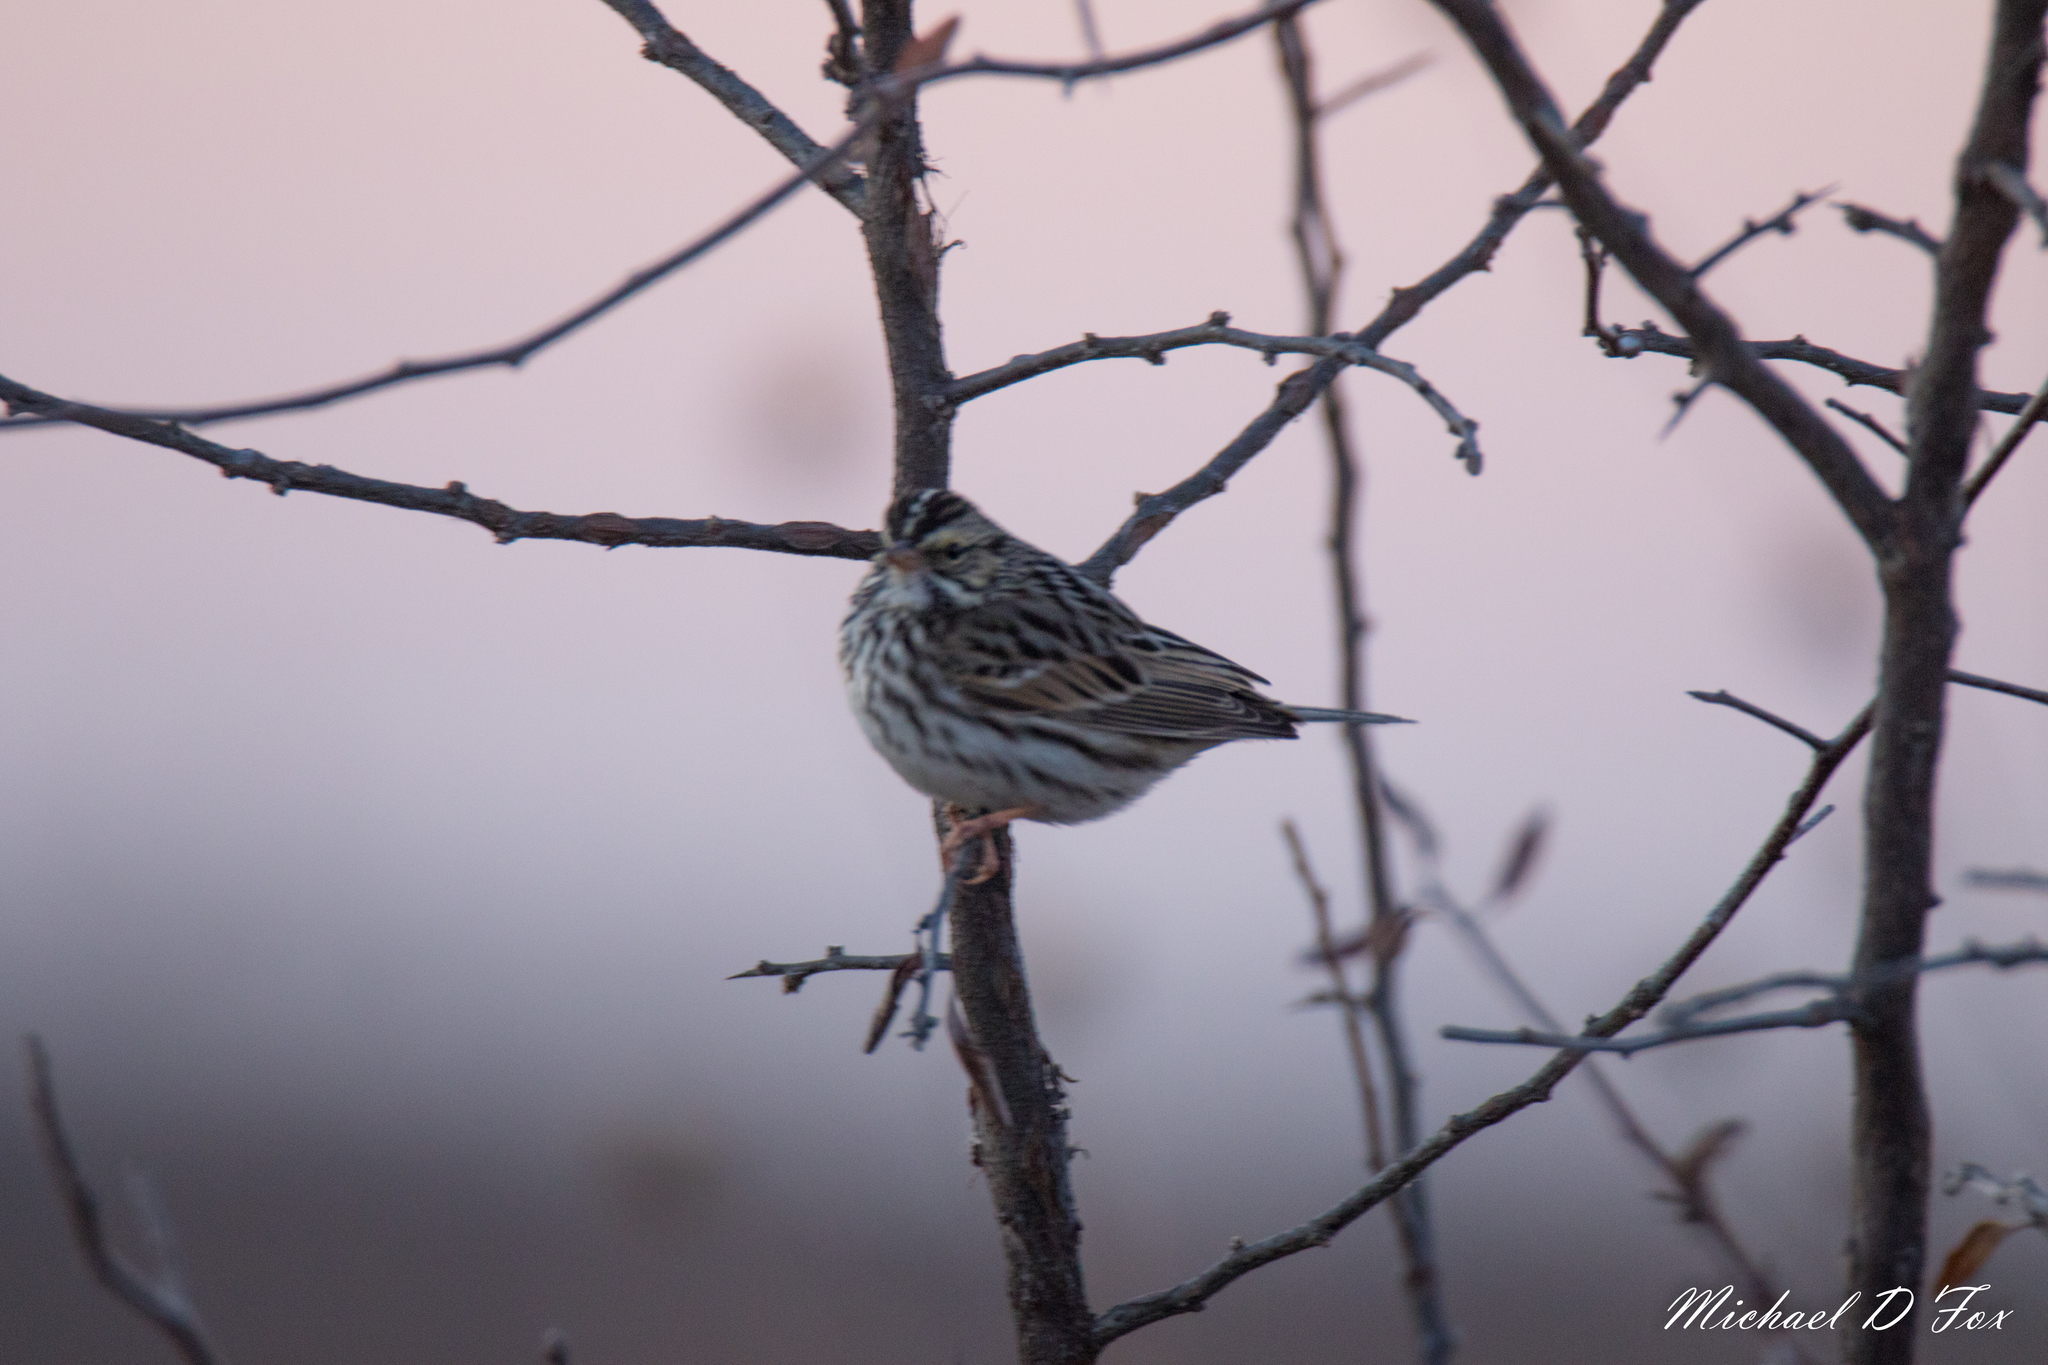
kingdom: Animalia
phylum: Chordata
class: Aves
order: Passeriformes
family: Passerellidae
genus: Passerculus
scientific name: Passerculus sandwichensis
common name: Savannah sparrow
